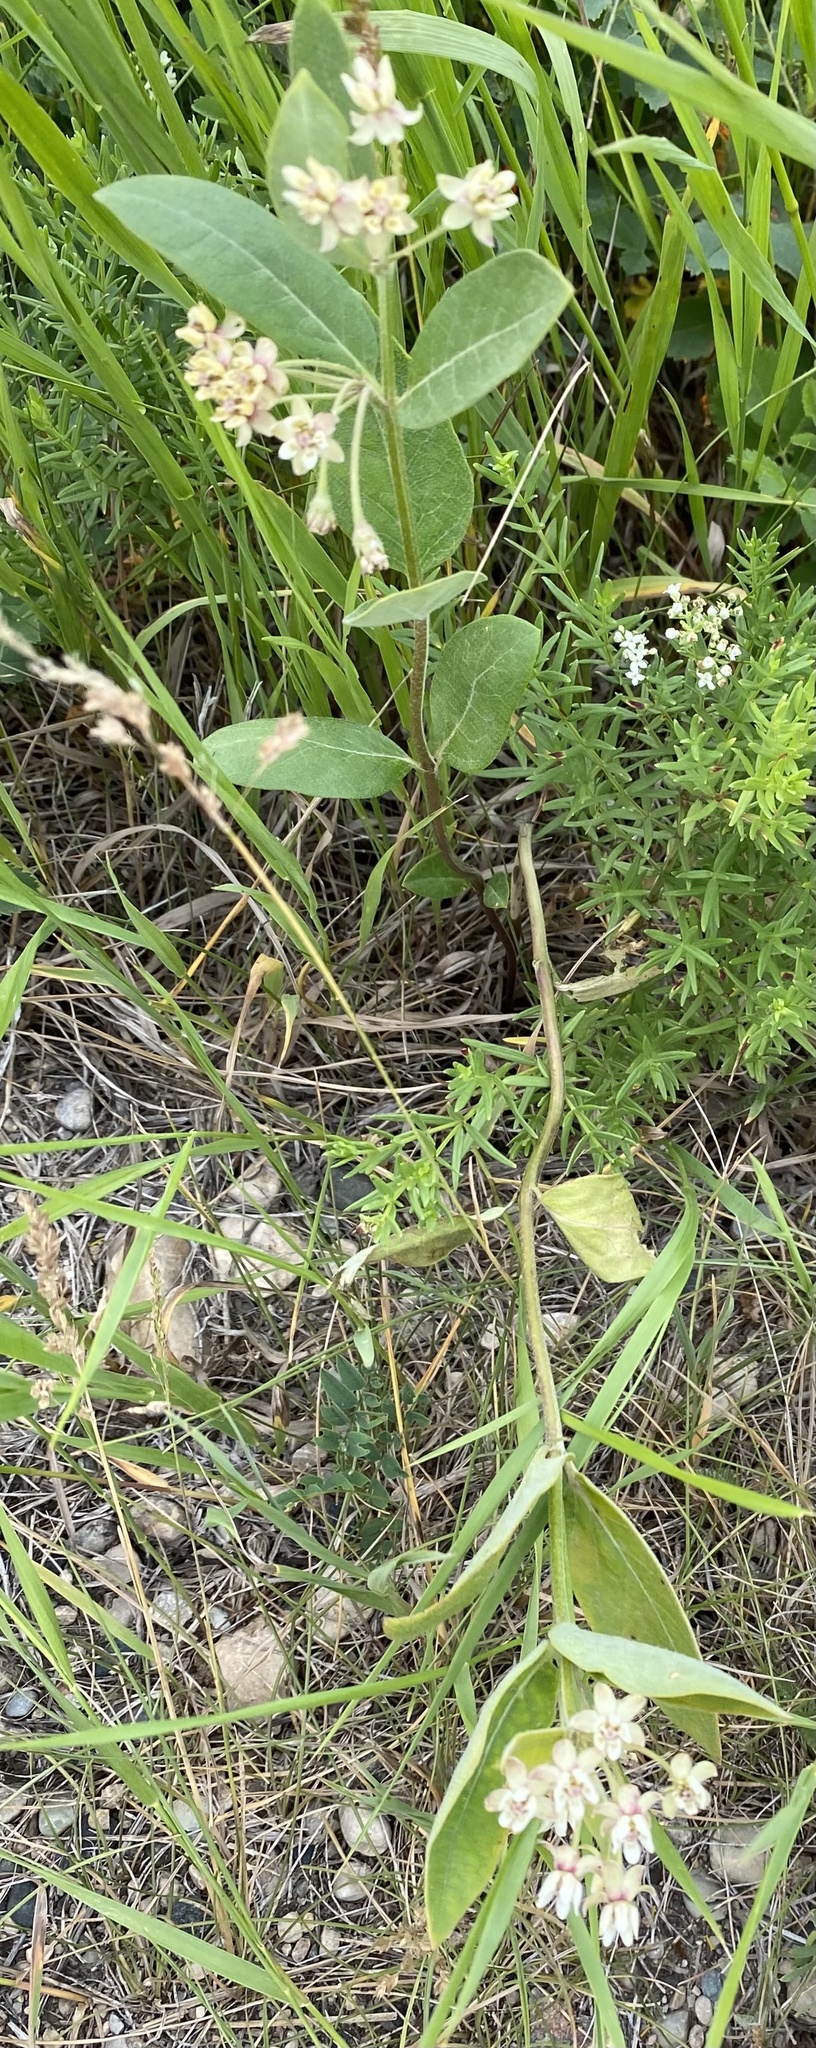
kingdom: Plantae
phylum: Tracheophyta
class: Magnoliopsida
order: Gentianales
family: Apocynaceae
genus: Asclepias
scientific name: Asclepias ovalifolia
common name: Dwarf milkweed
